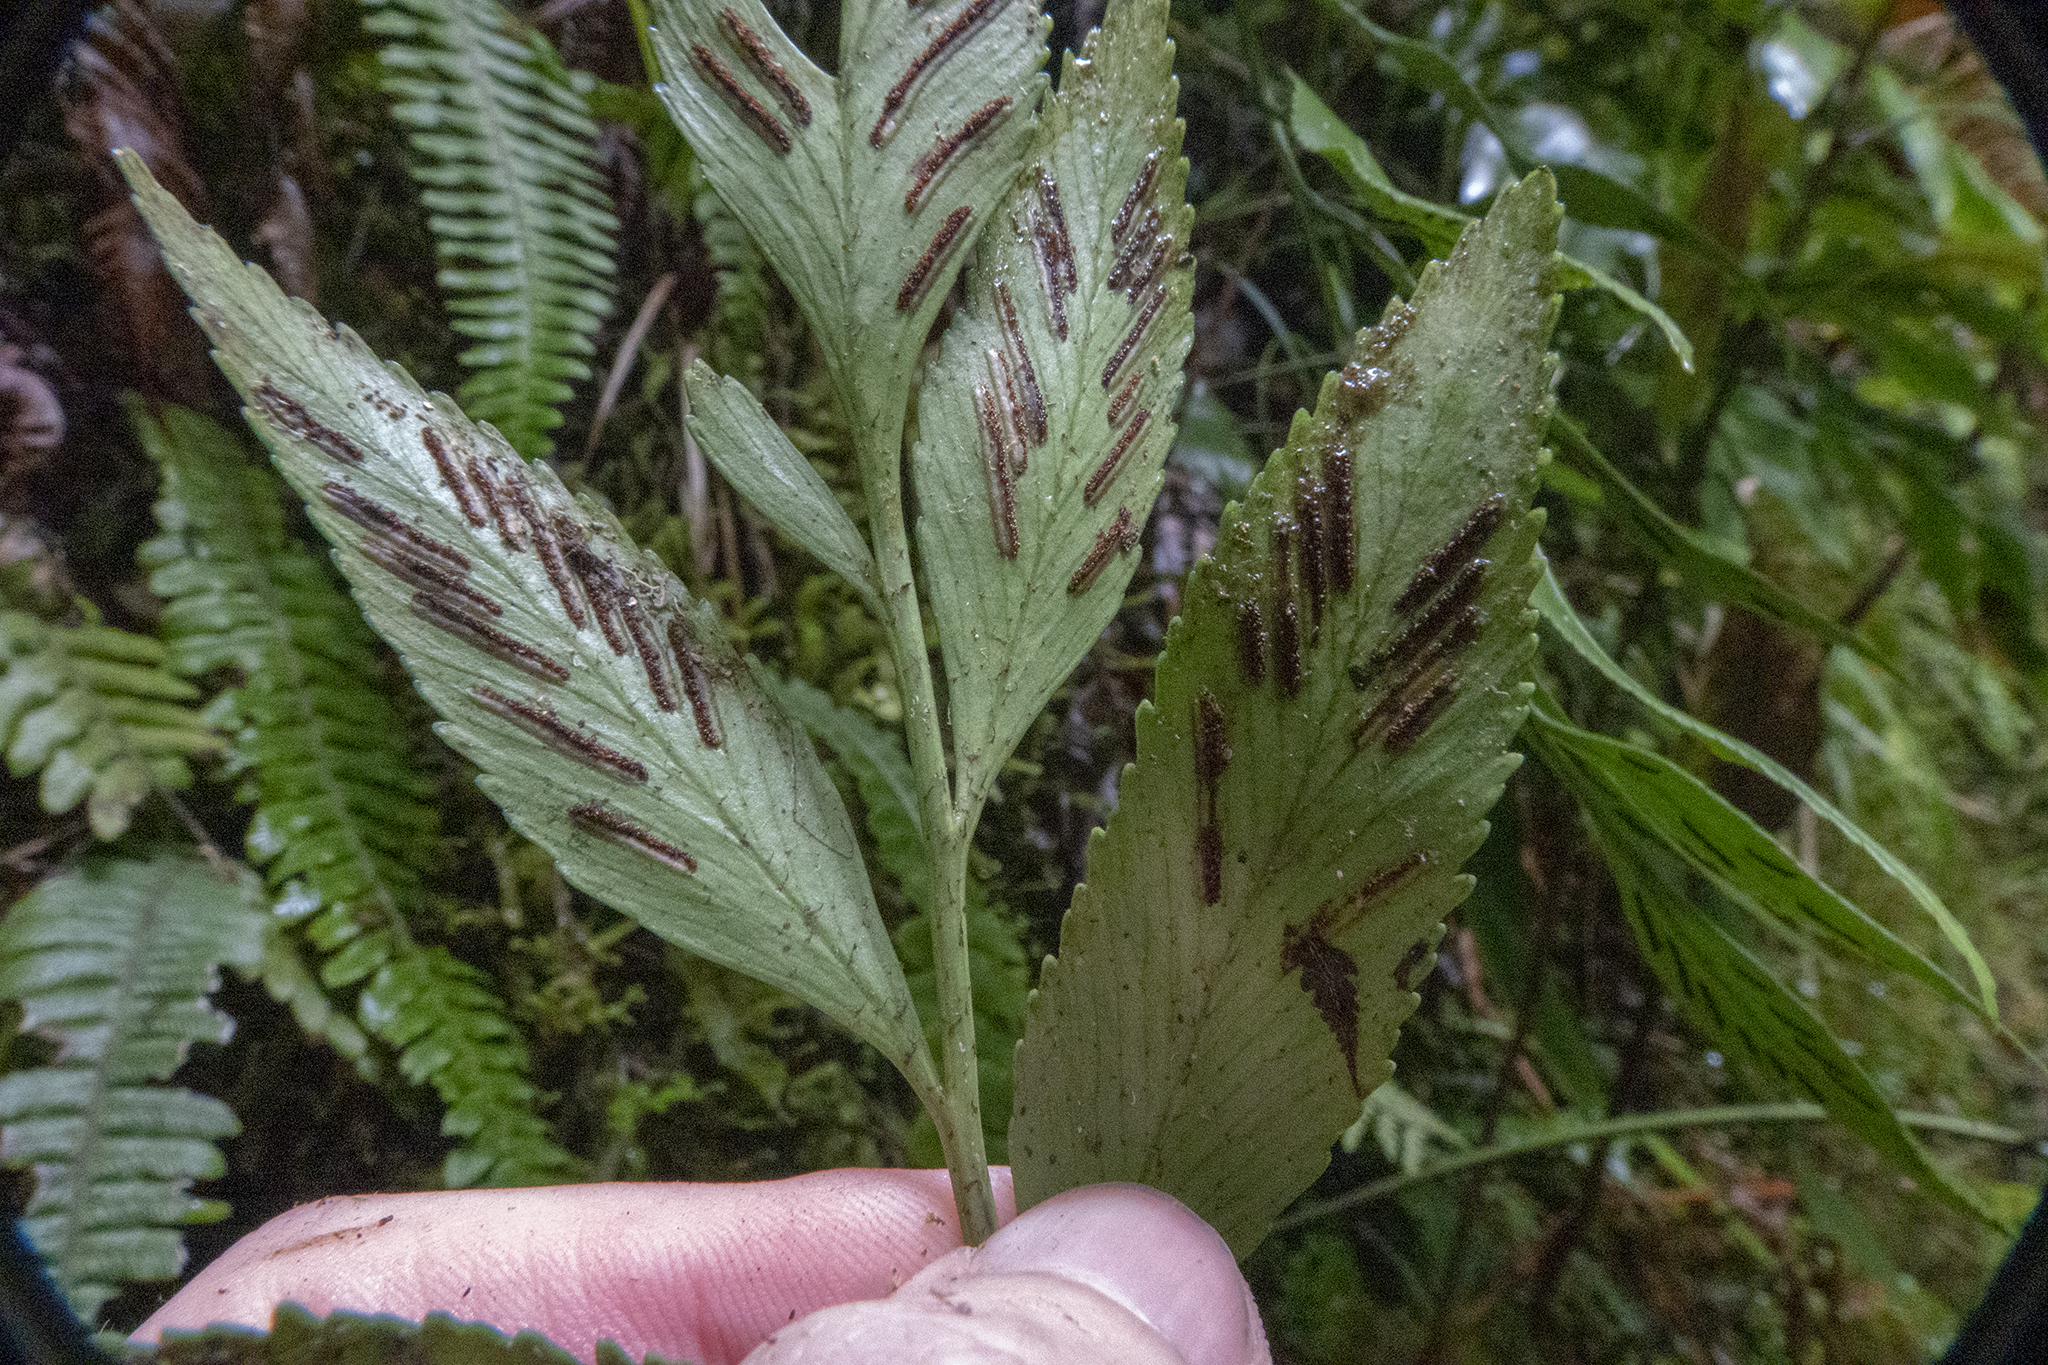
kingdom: Plantae
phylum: Tracheophyta
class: Polypodiopsida
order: Polypodiales
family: Aspleniaceae
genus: Asplenium
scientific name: Asplenium lepidotum
